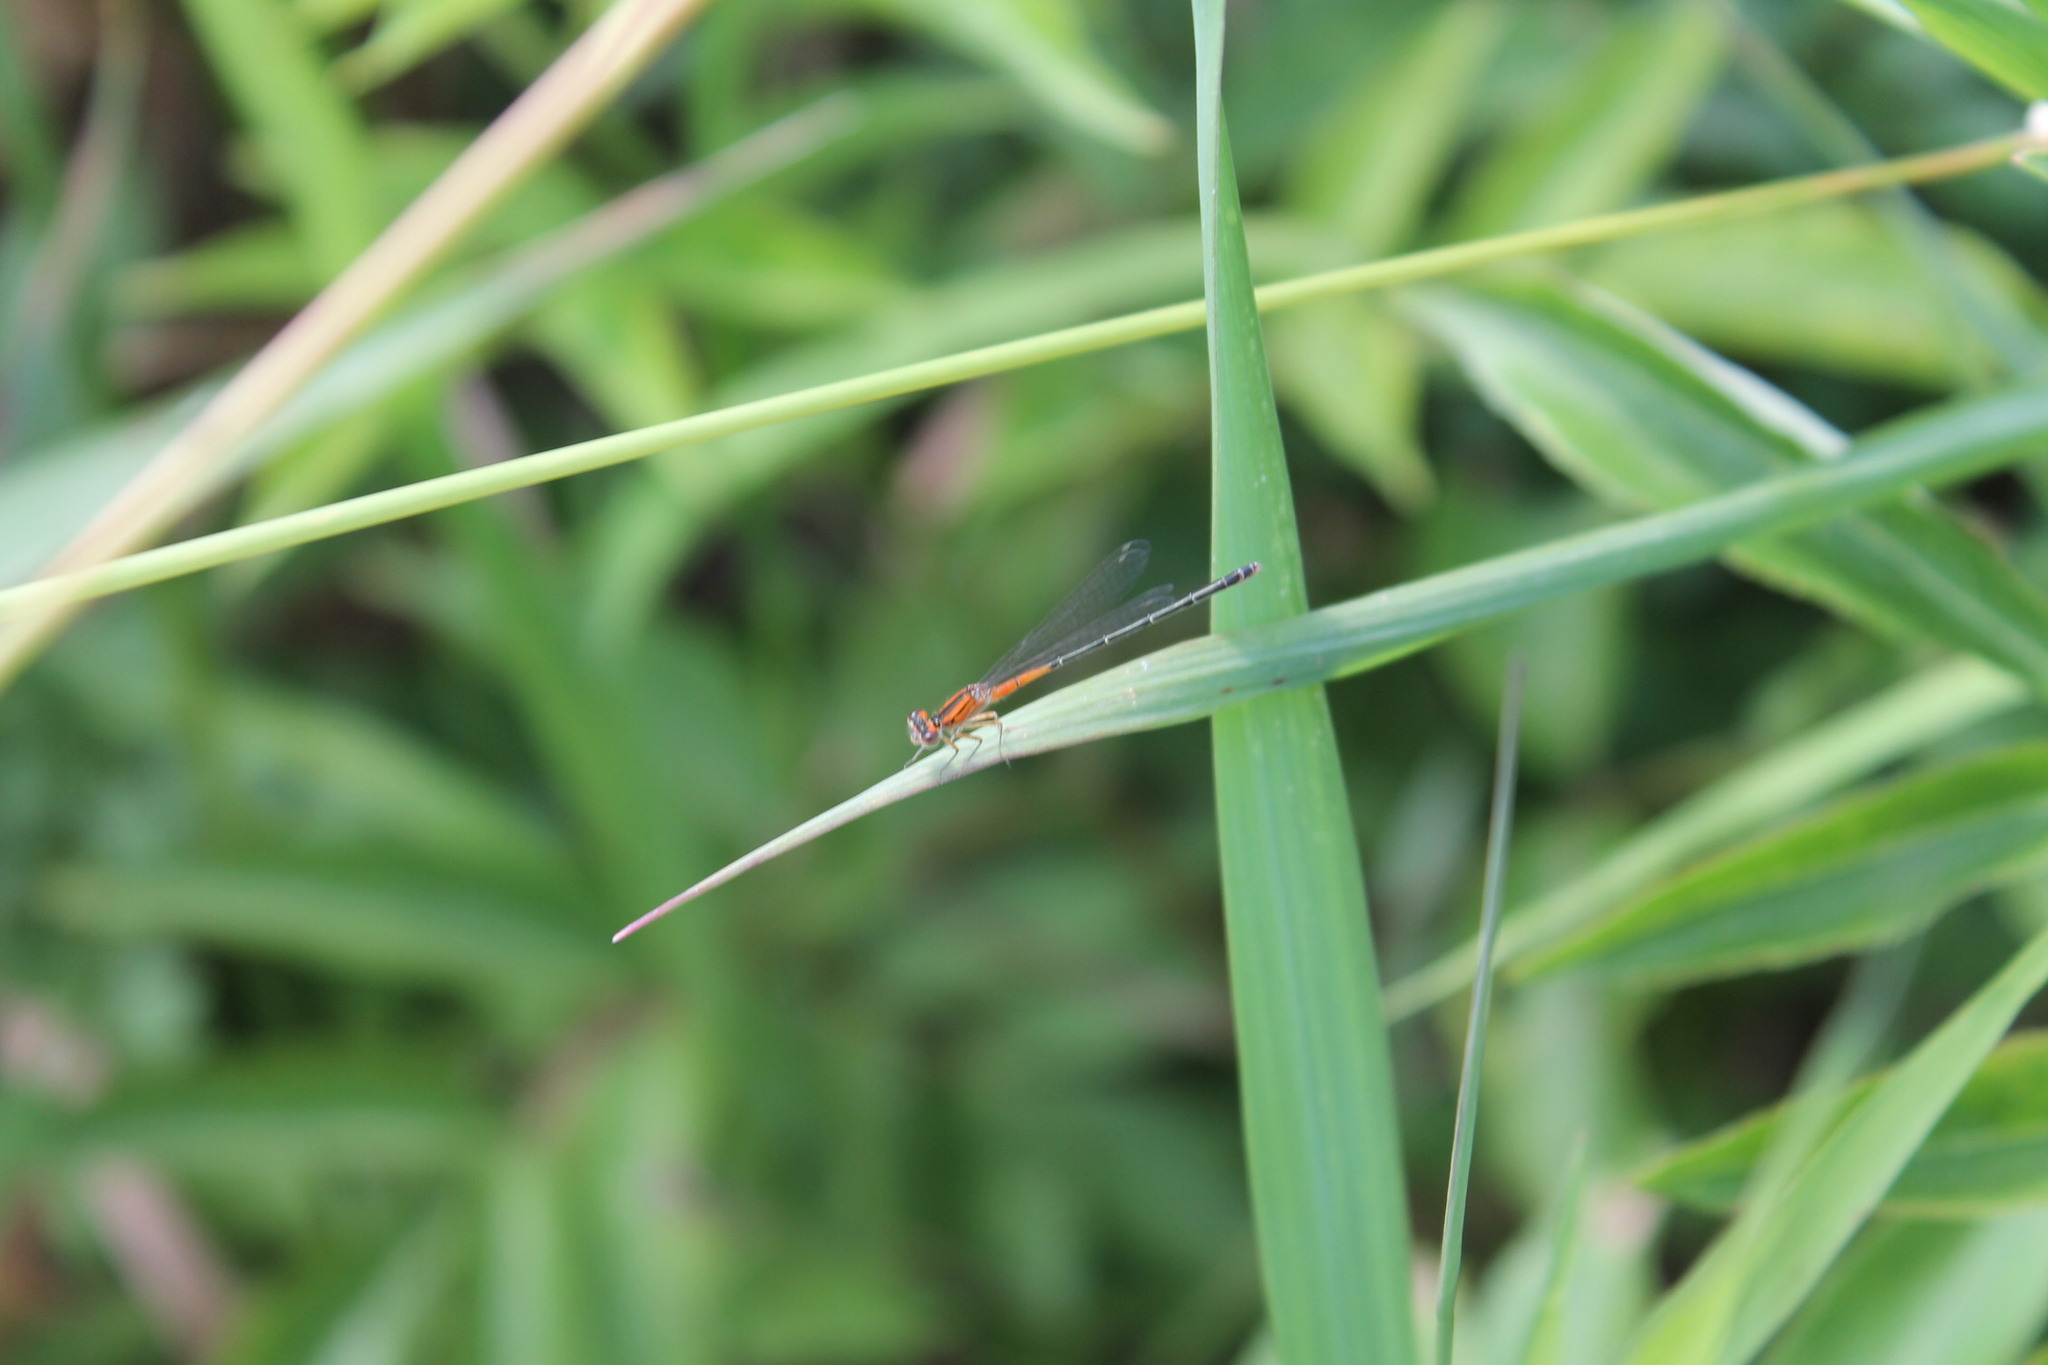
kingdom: Animalia
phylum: Arthropoda
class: Insecta
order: Odonata
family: Coenagrionidae
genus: Ischnura
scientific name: Ischnura verticalis
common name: Eastern forktail
